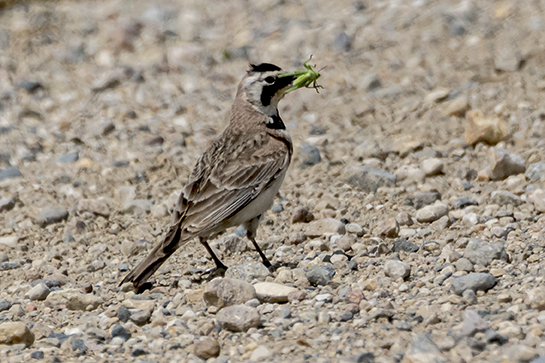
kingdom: Animalia
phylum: Chordata
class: Aves
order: Passeriformes
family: Alaudidae
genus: Eremophila
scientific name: Eremophila alpestris
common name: Horned lark
